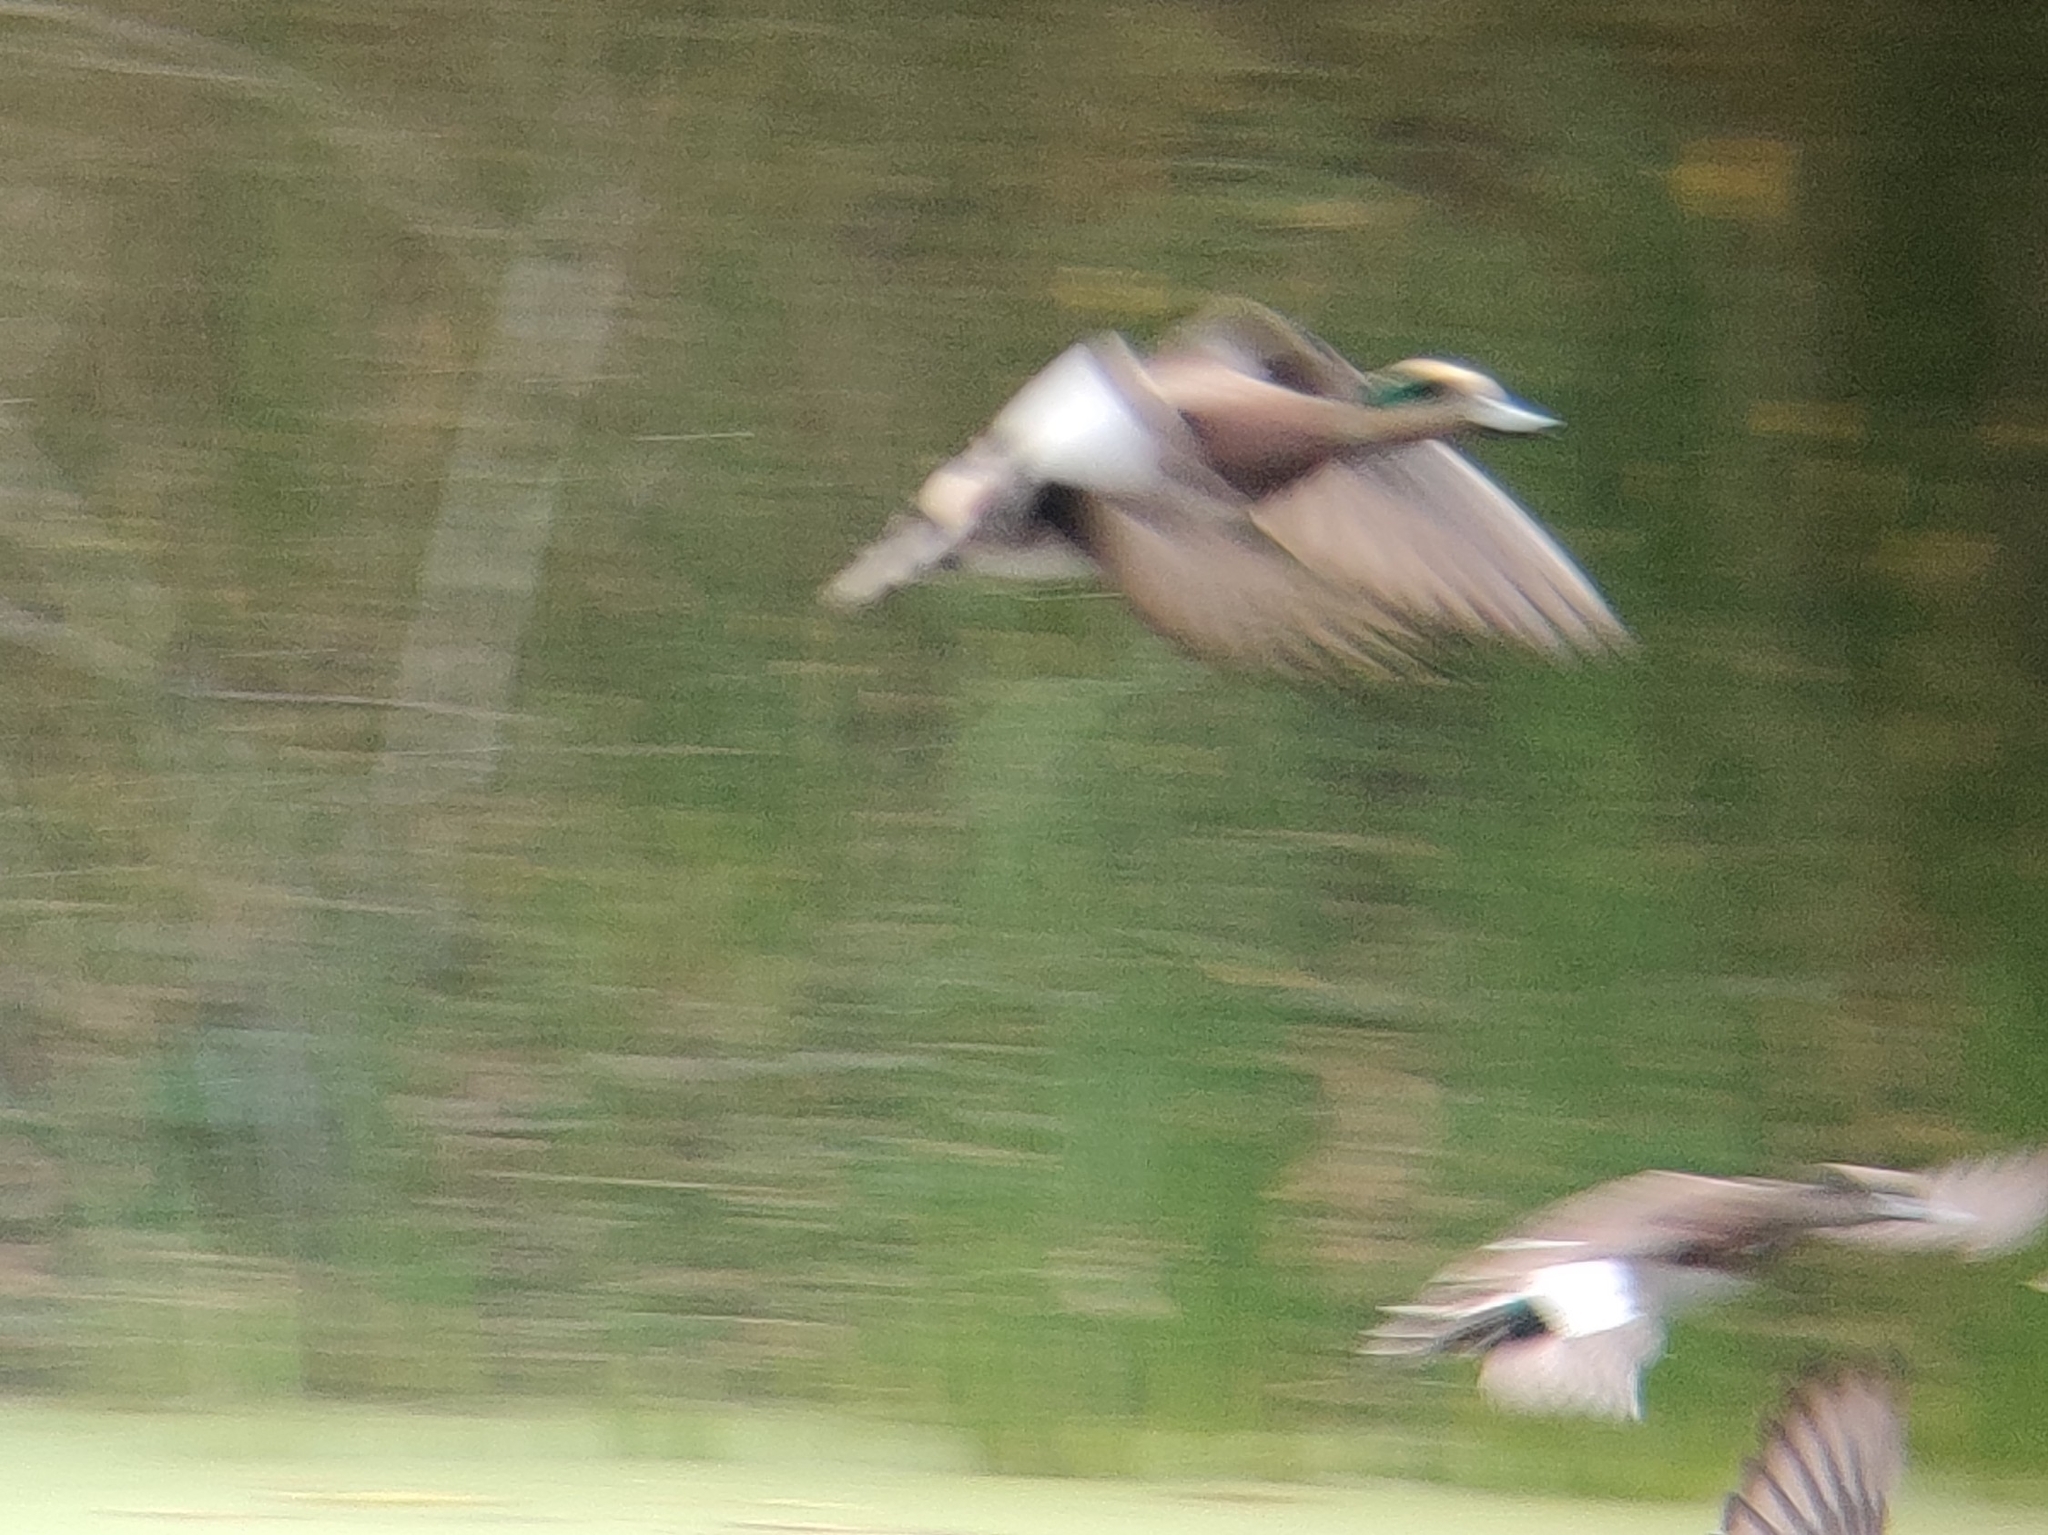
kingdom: Animalia
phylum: Chordata
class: Aves
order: Anseriformes
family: Anatidae
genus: Mareca
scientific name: Mareca americana
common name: American wigeon
